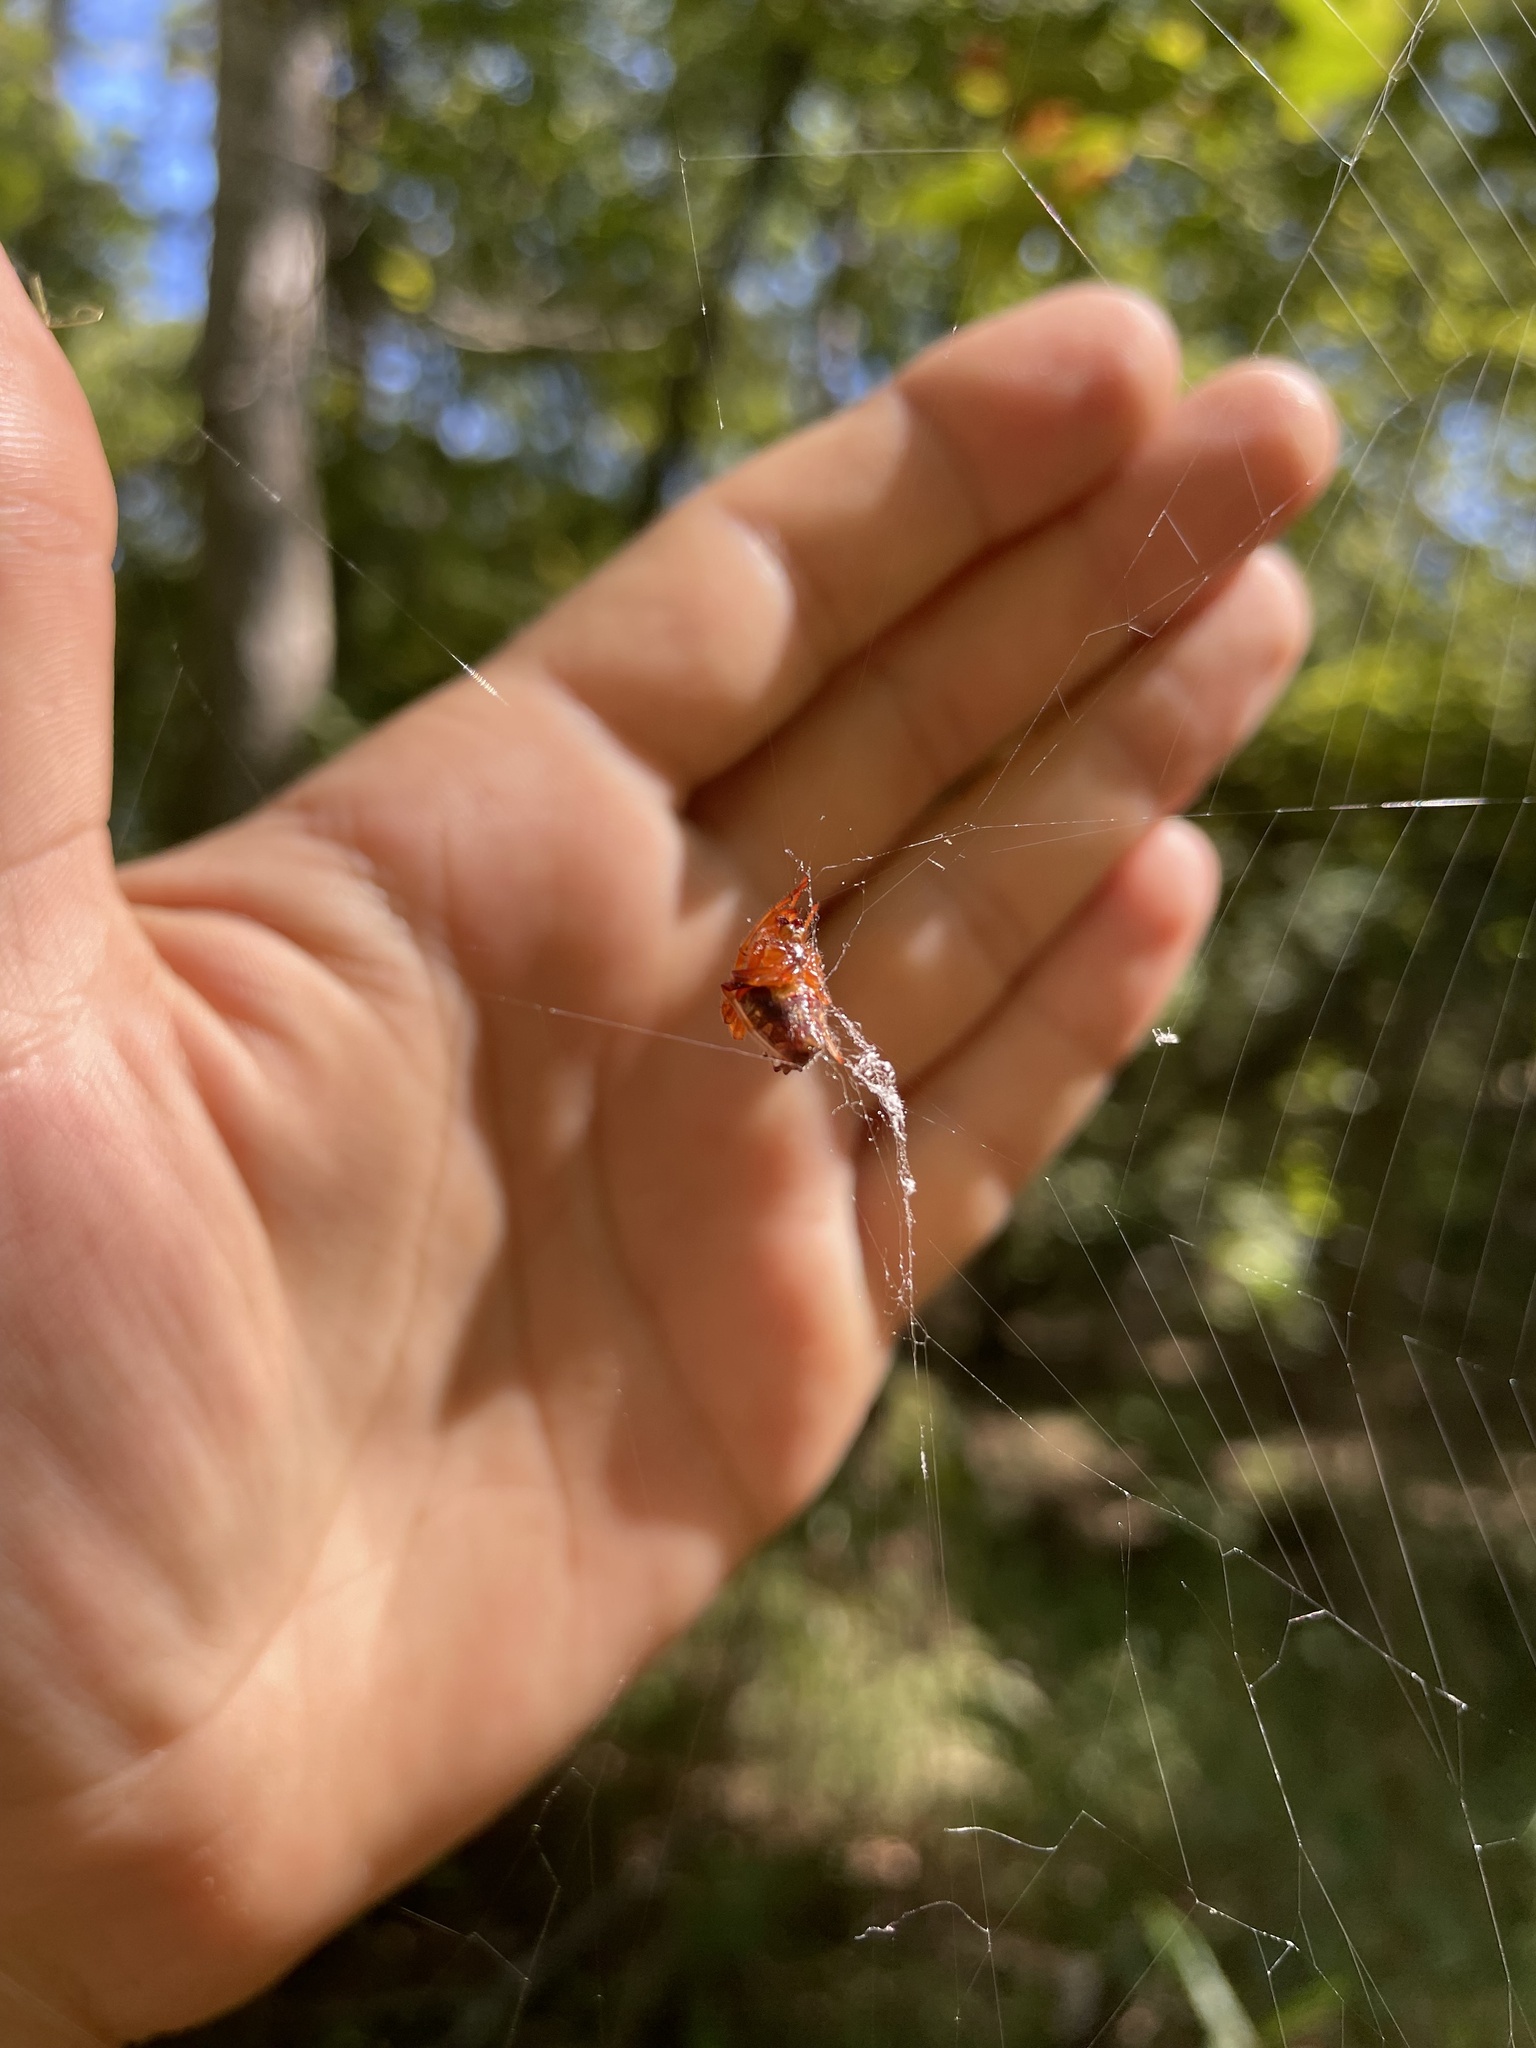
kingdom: Animalia
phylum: Arthropoda
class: Arachnida
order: Araneae
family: Araneidae
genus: Verrucosa
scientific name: Verrucosa arenata
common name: Orb weavers
